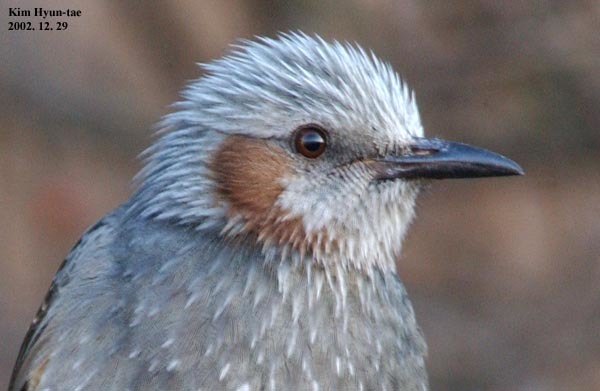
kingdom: Animalia
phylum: Chordata
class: Aves
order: Passeriformes
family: Pycnonotidae
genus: Hypsipetes
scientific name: Hypsipetes amaurotis
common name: Brown-eared bulbul
